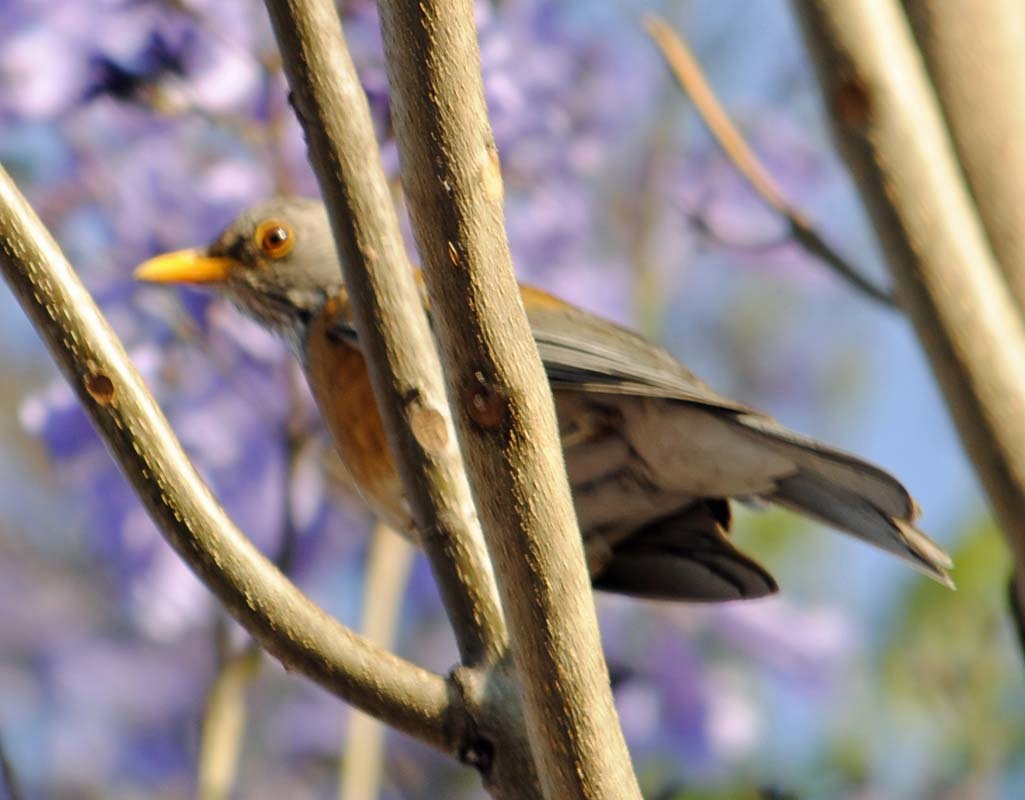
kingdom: Animalia
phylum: Chordata
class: Aves
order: Passeriformes
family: Turdidae
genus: Turdus
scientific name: Turdus rufopalliatus
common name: Rufous-backed robin
